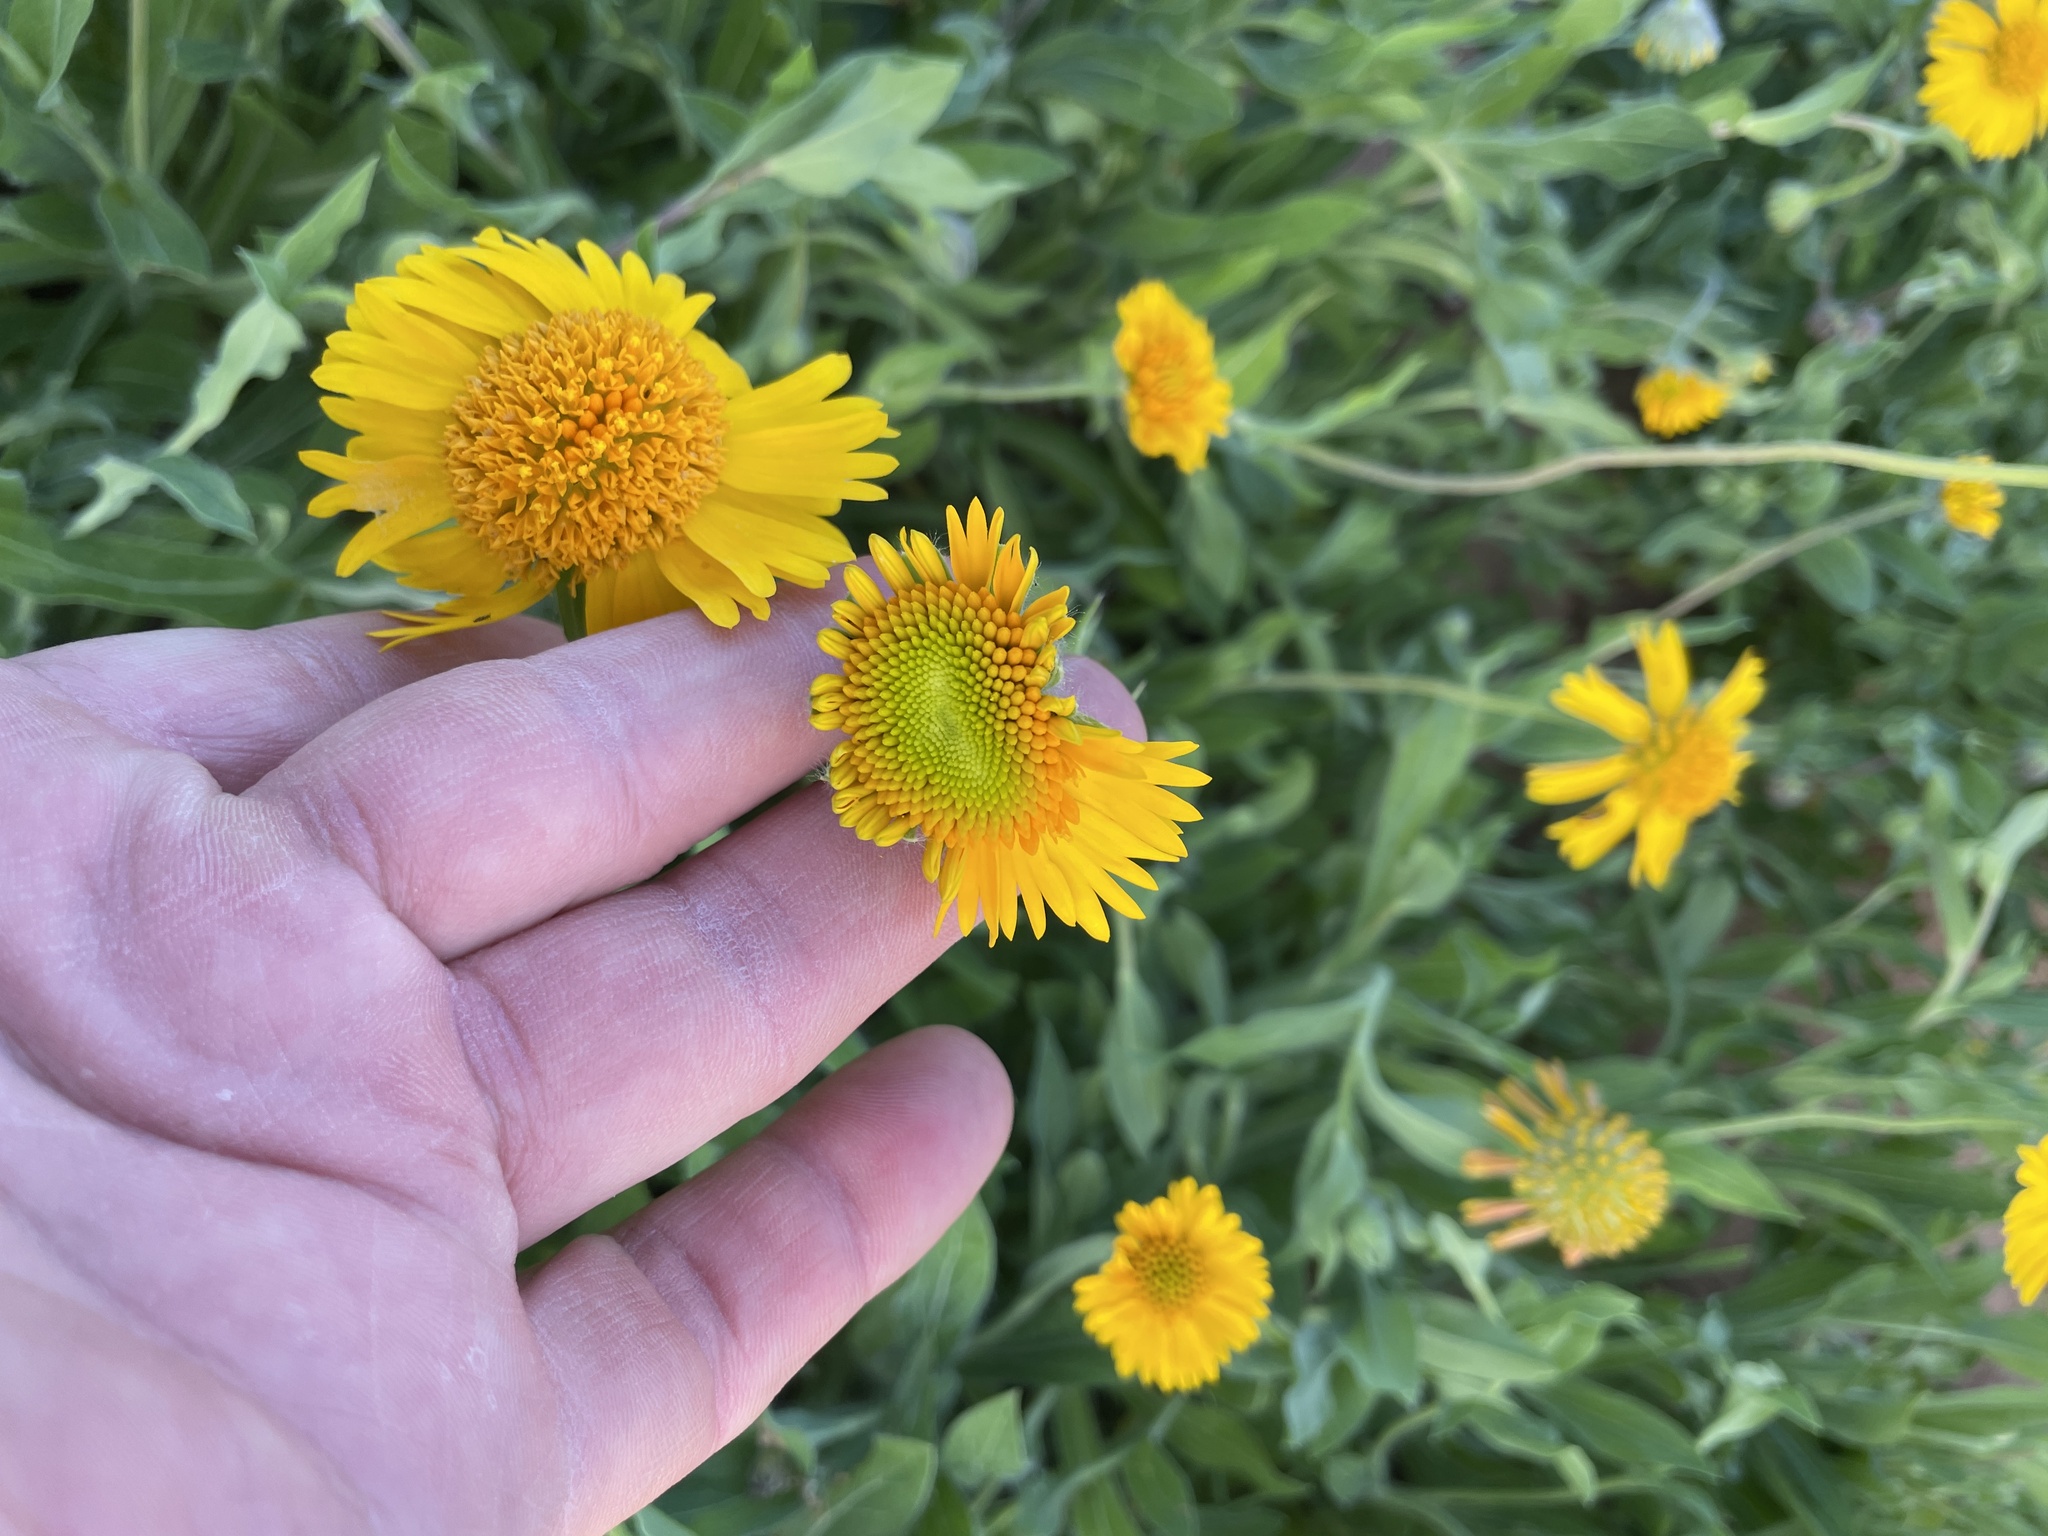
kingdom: Plantae
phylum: Tracheophyta
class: Magnoliopsida
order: Asterales
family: Asteraceae
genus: Amblyolepis
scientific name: Amblyolepis setigera
